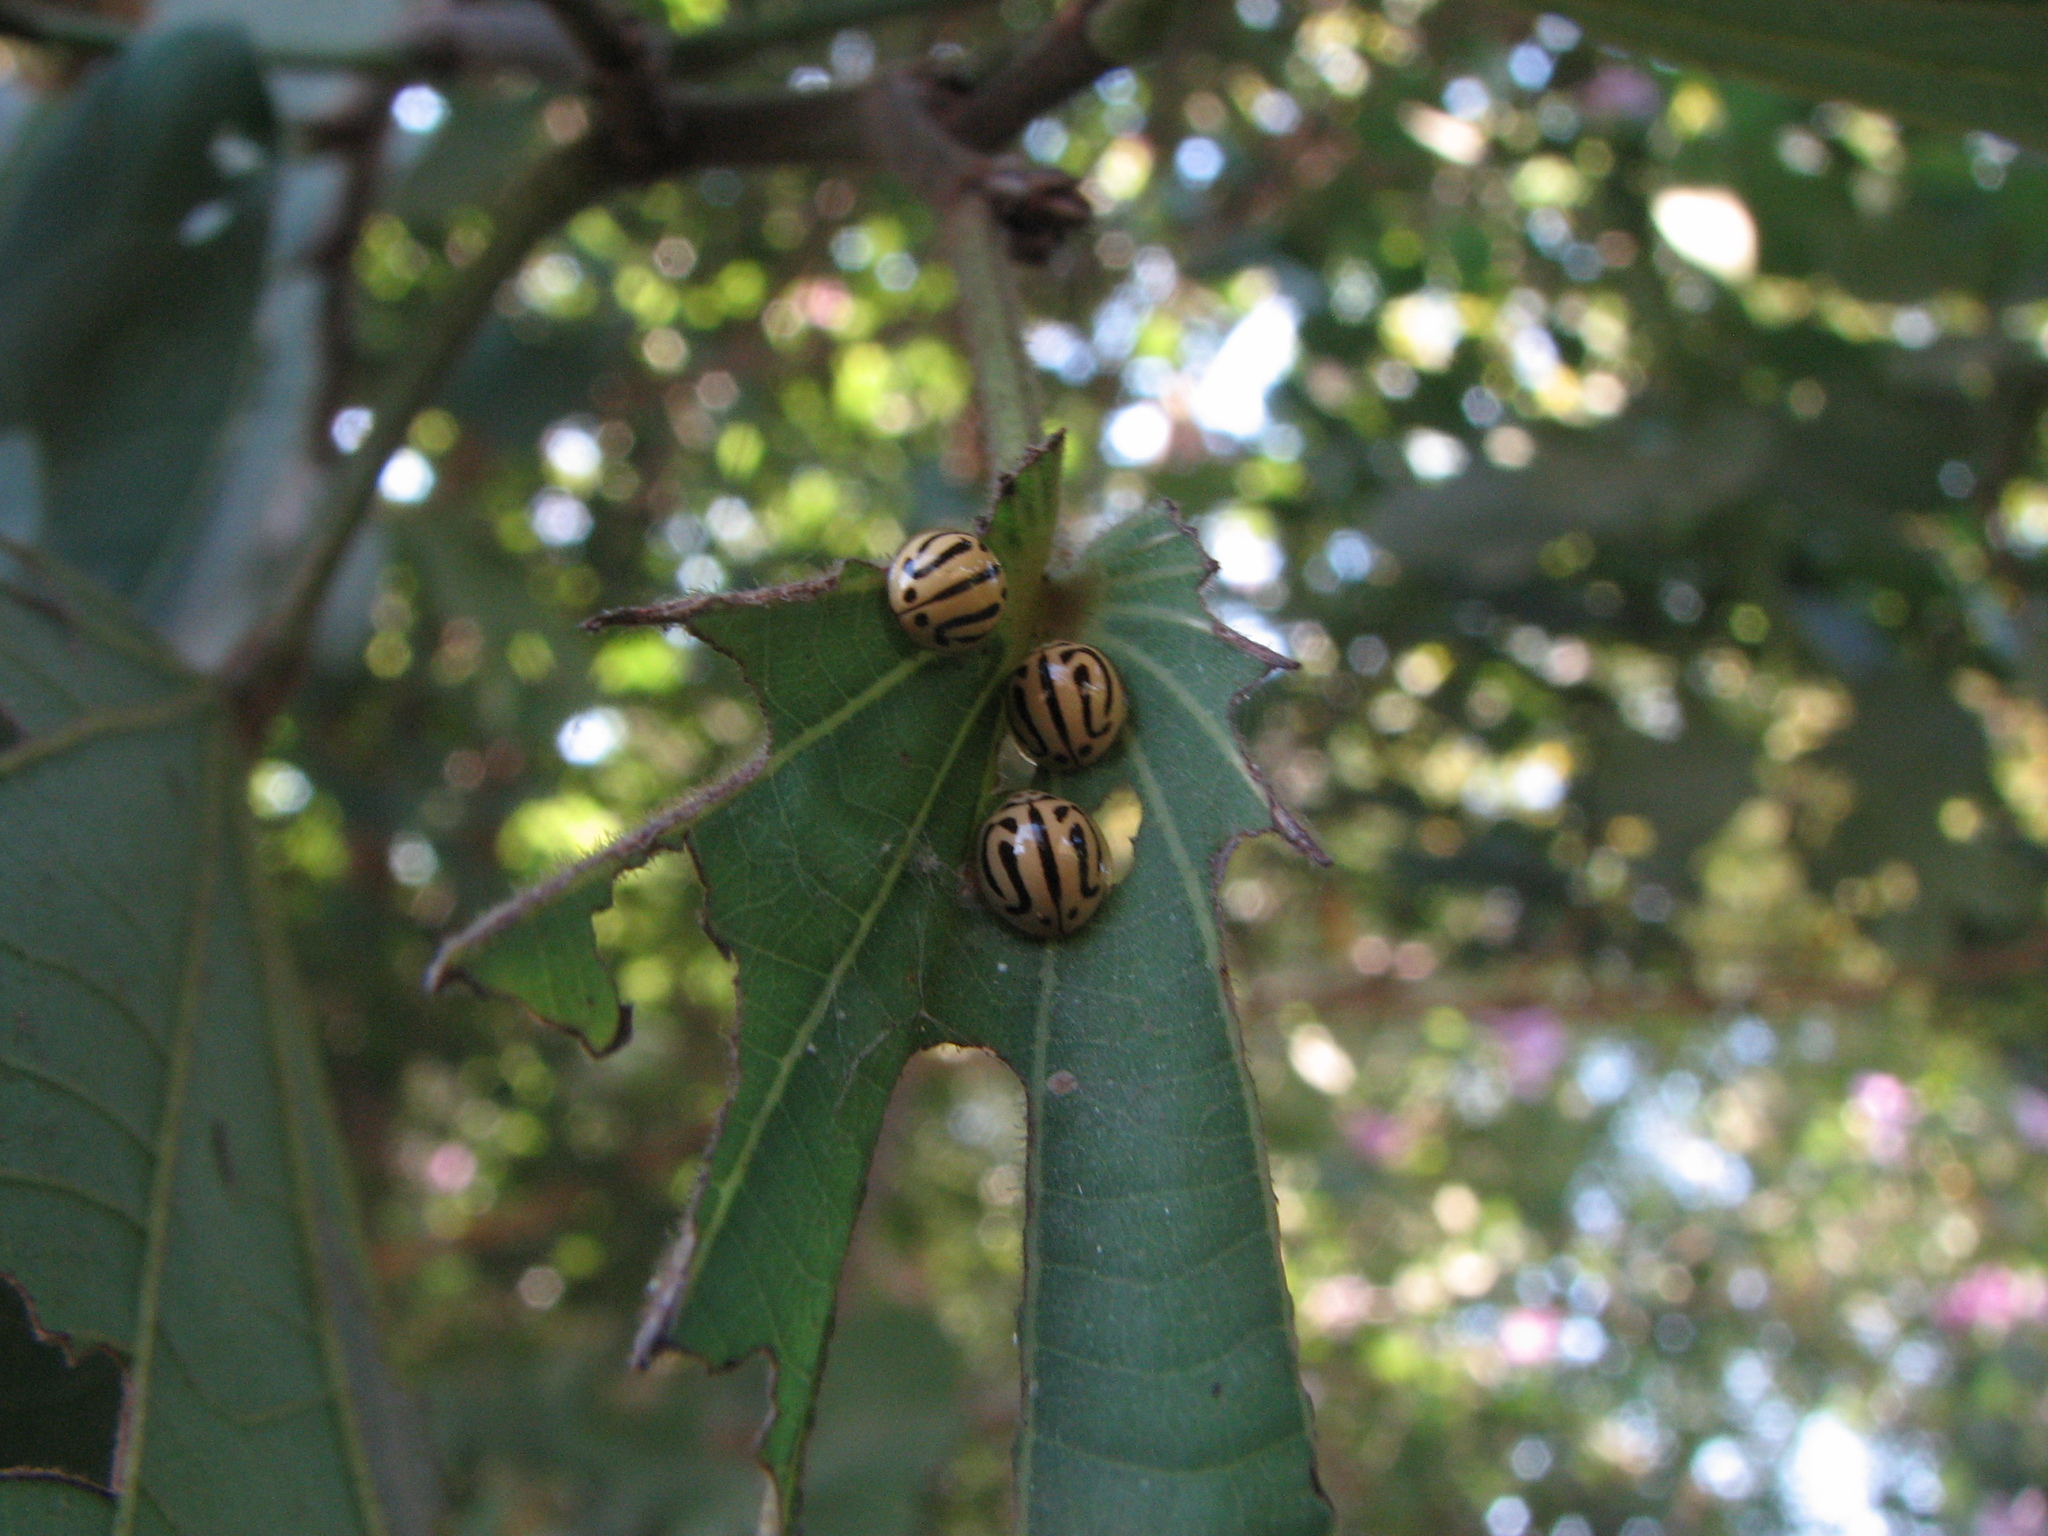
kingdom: Animalia
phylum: Arthropoda
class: Insecta
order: Coleoptera
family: Coccinellidae
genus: Anegleis
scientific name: Anegleis cardoni
